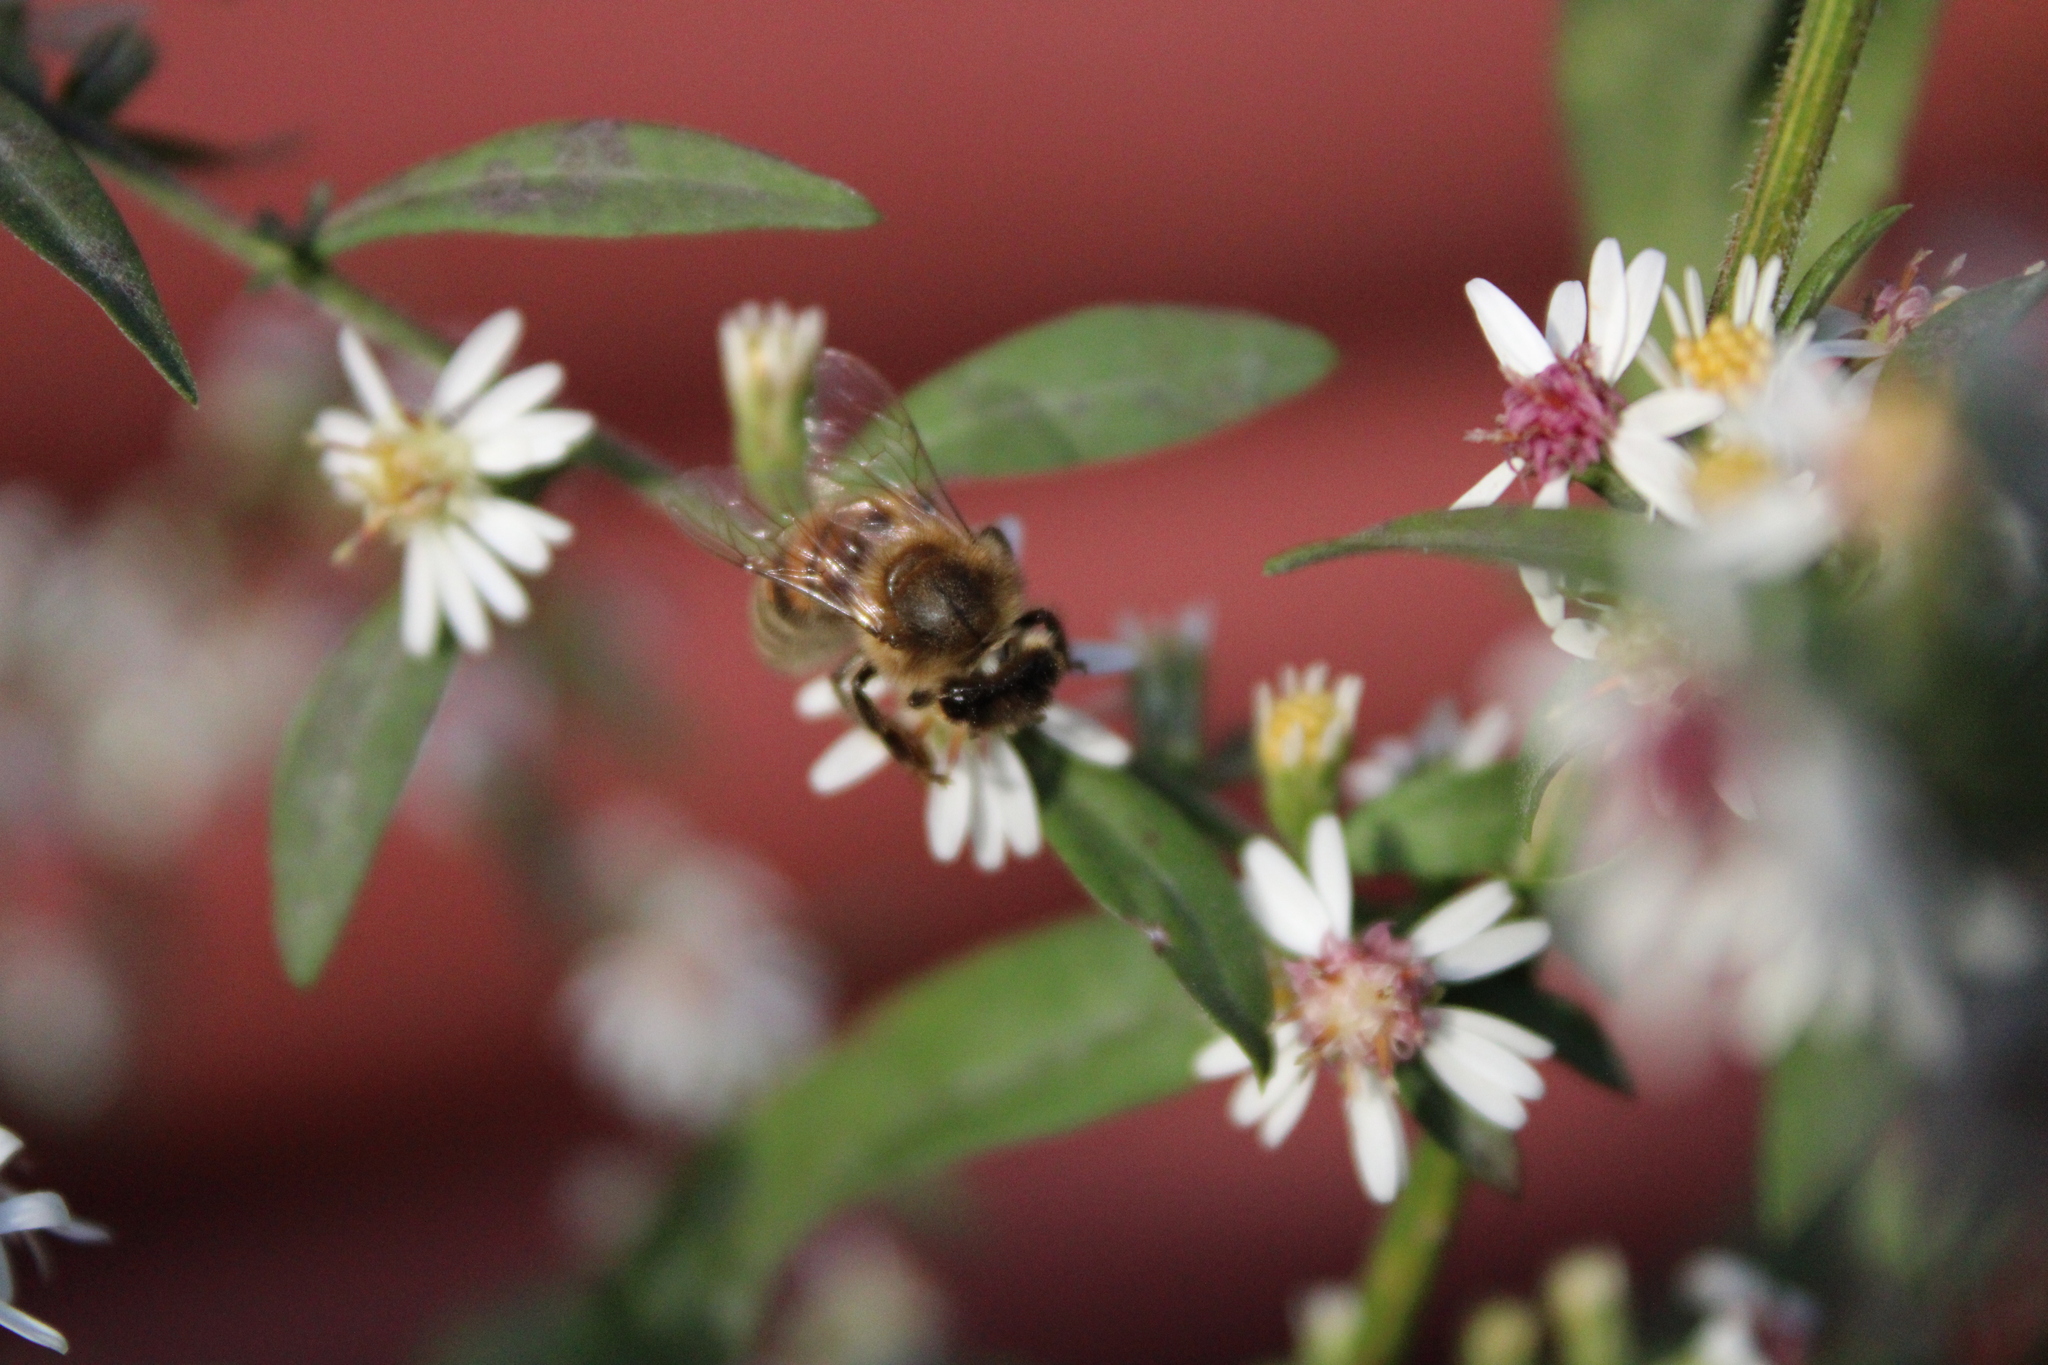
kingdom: Animalia
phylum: Arthropoda
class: Insecta
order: Hymenoptera
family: Apidae
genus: Apis
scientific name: Apis mellifera
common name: Honey bee
